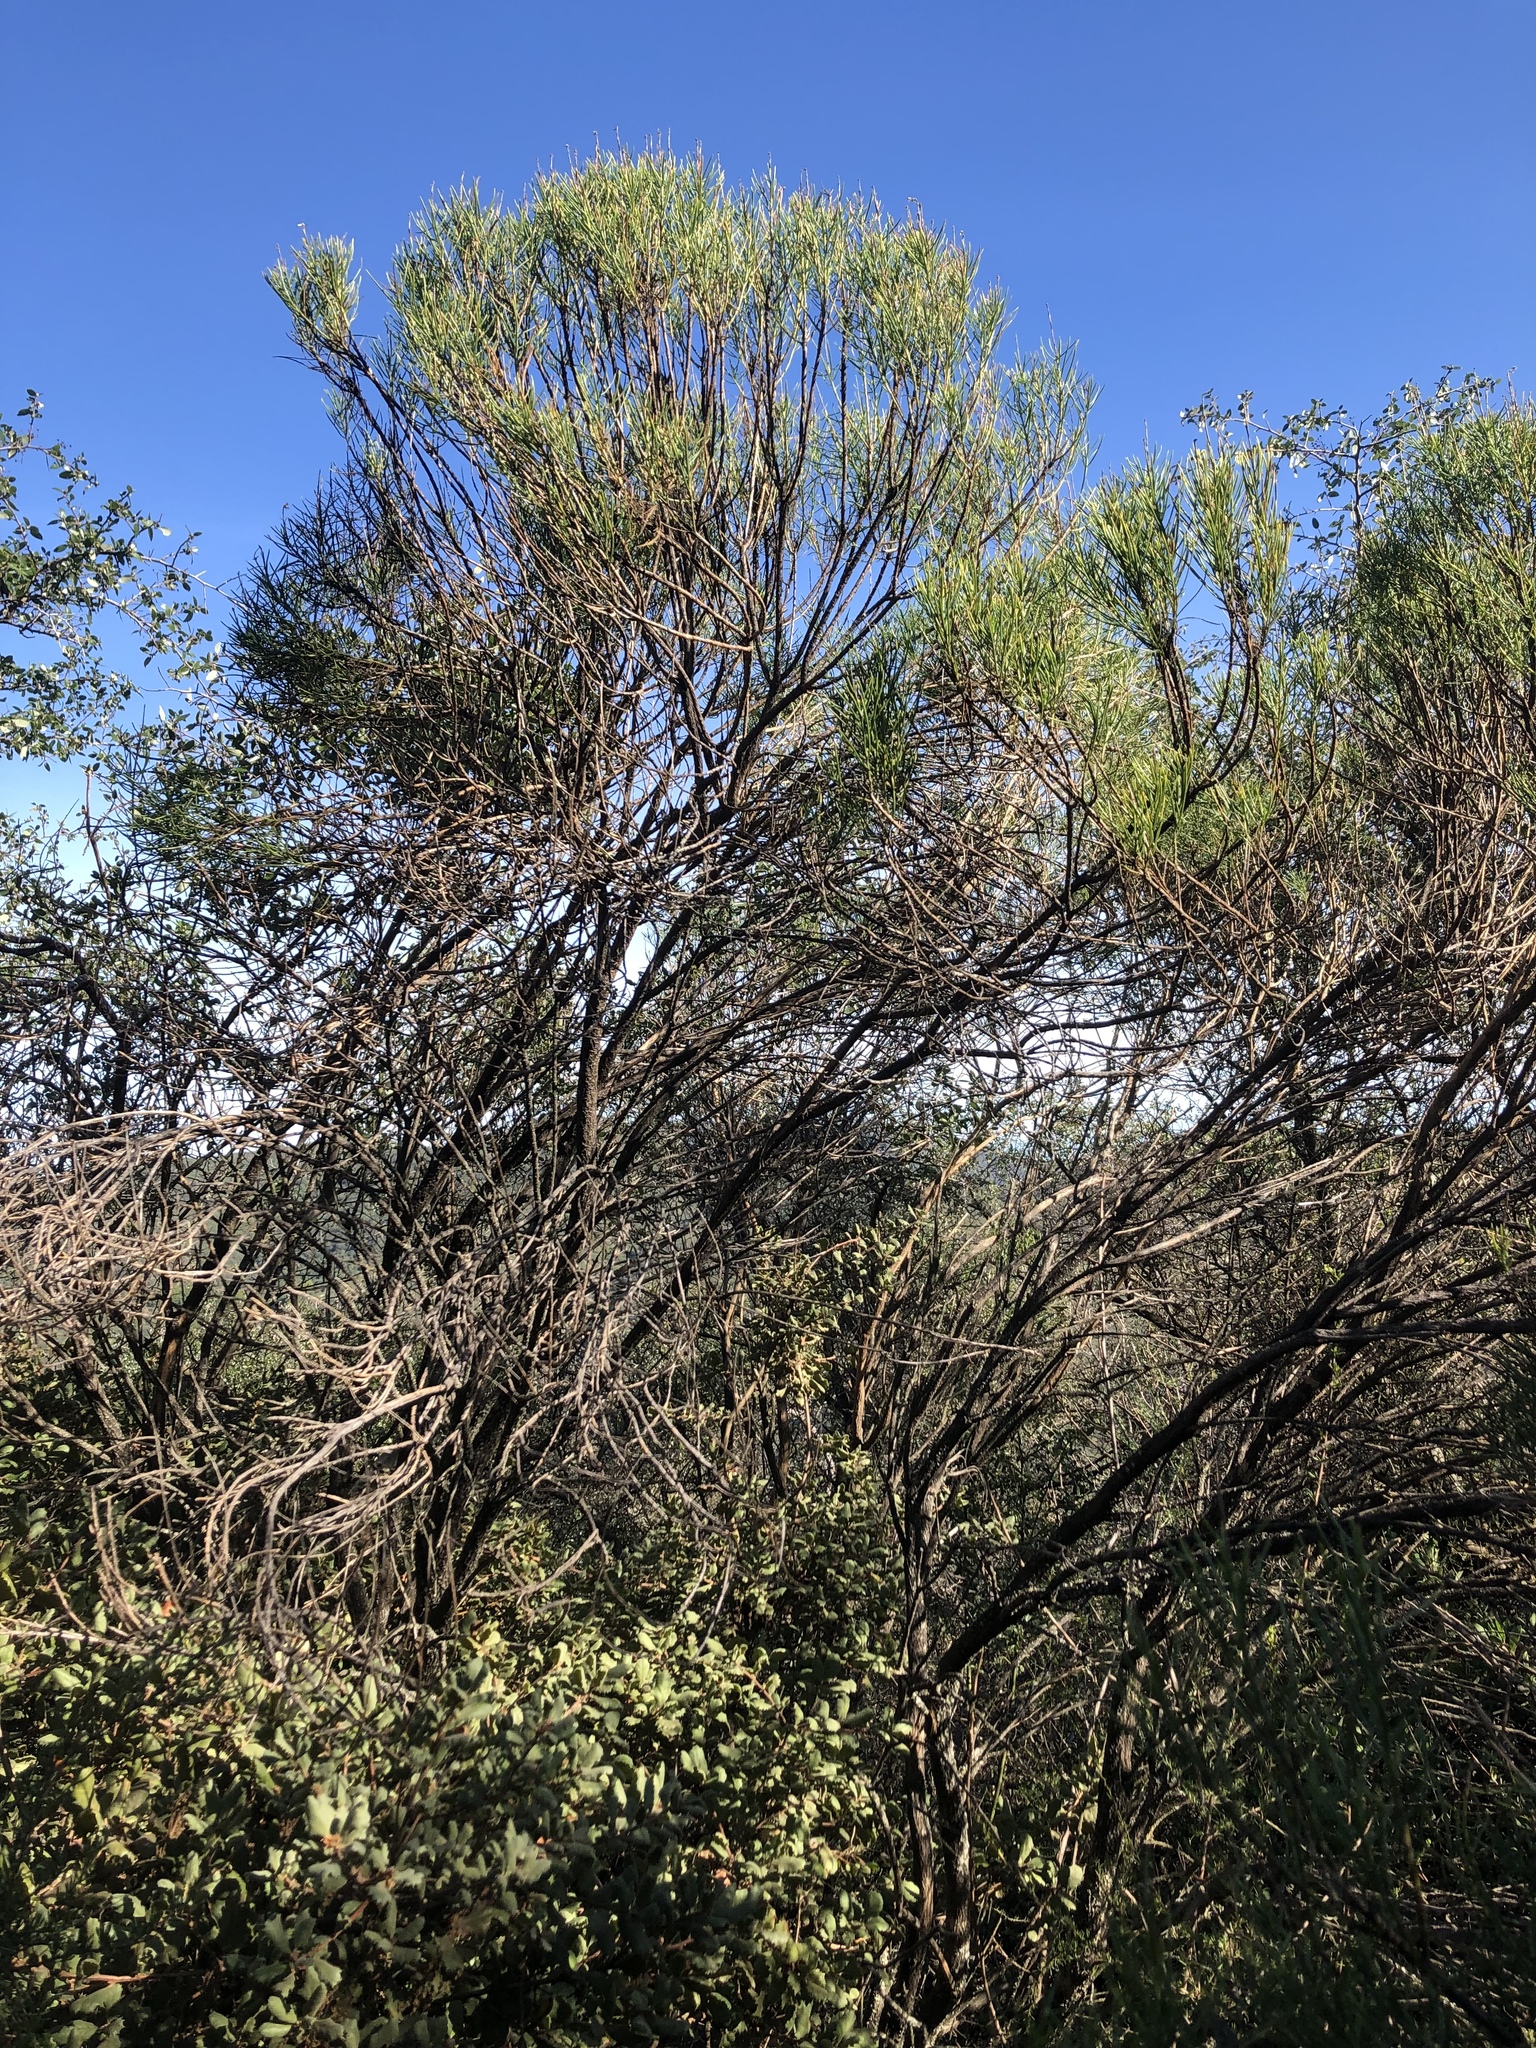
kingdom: Plantae
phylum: Tracheophyta
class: Magnoliopsida
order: Asterales
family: Asteraceae
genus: Ericameria
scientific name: Ericameria arborescens
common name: Goldenfleece
